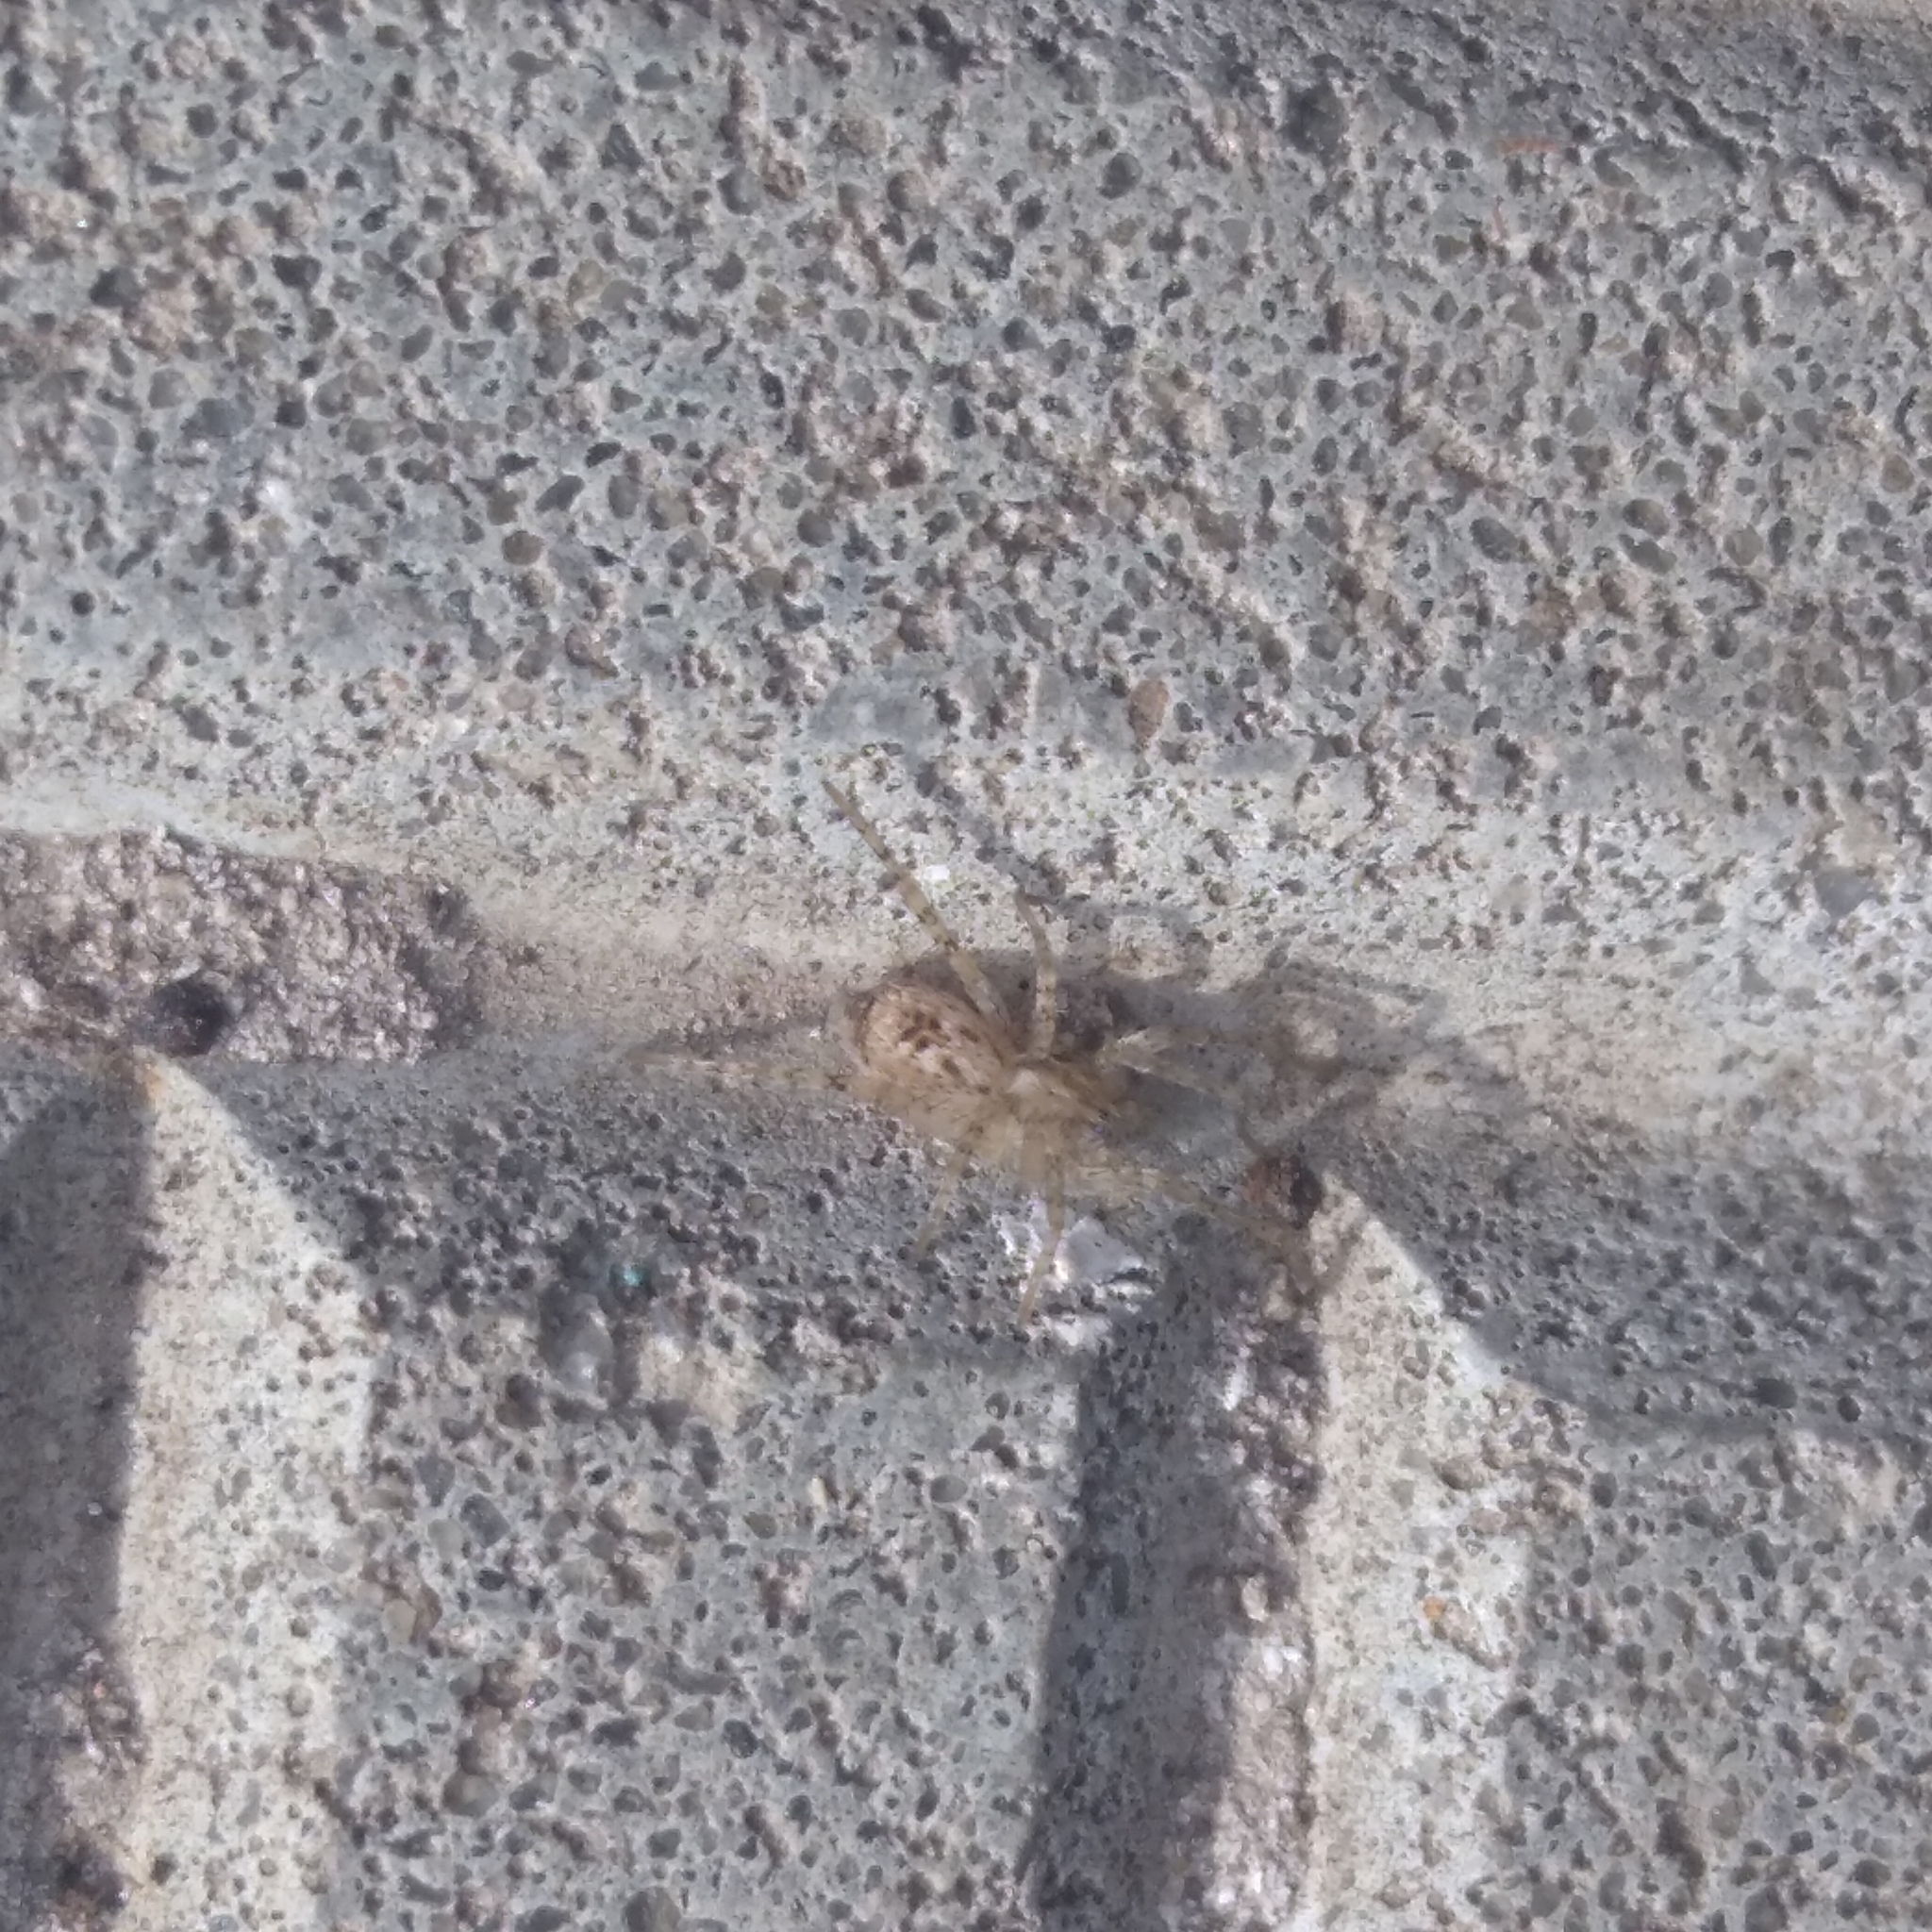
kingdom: Animalia
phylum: Arthropoda
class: Arachnida
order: Araneae
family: Anyphaenidae
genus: Anyphaena
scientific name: Anyphaena accentuata
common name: Buzzing spider
